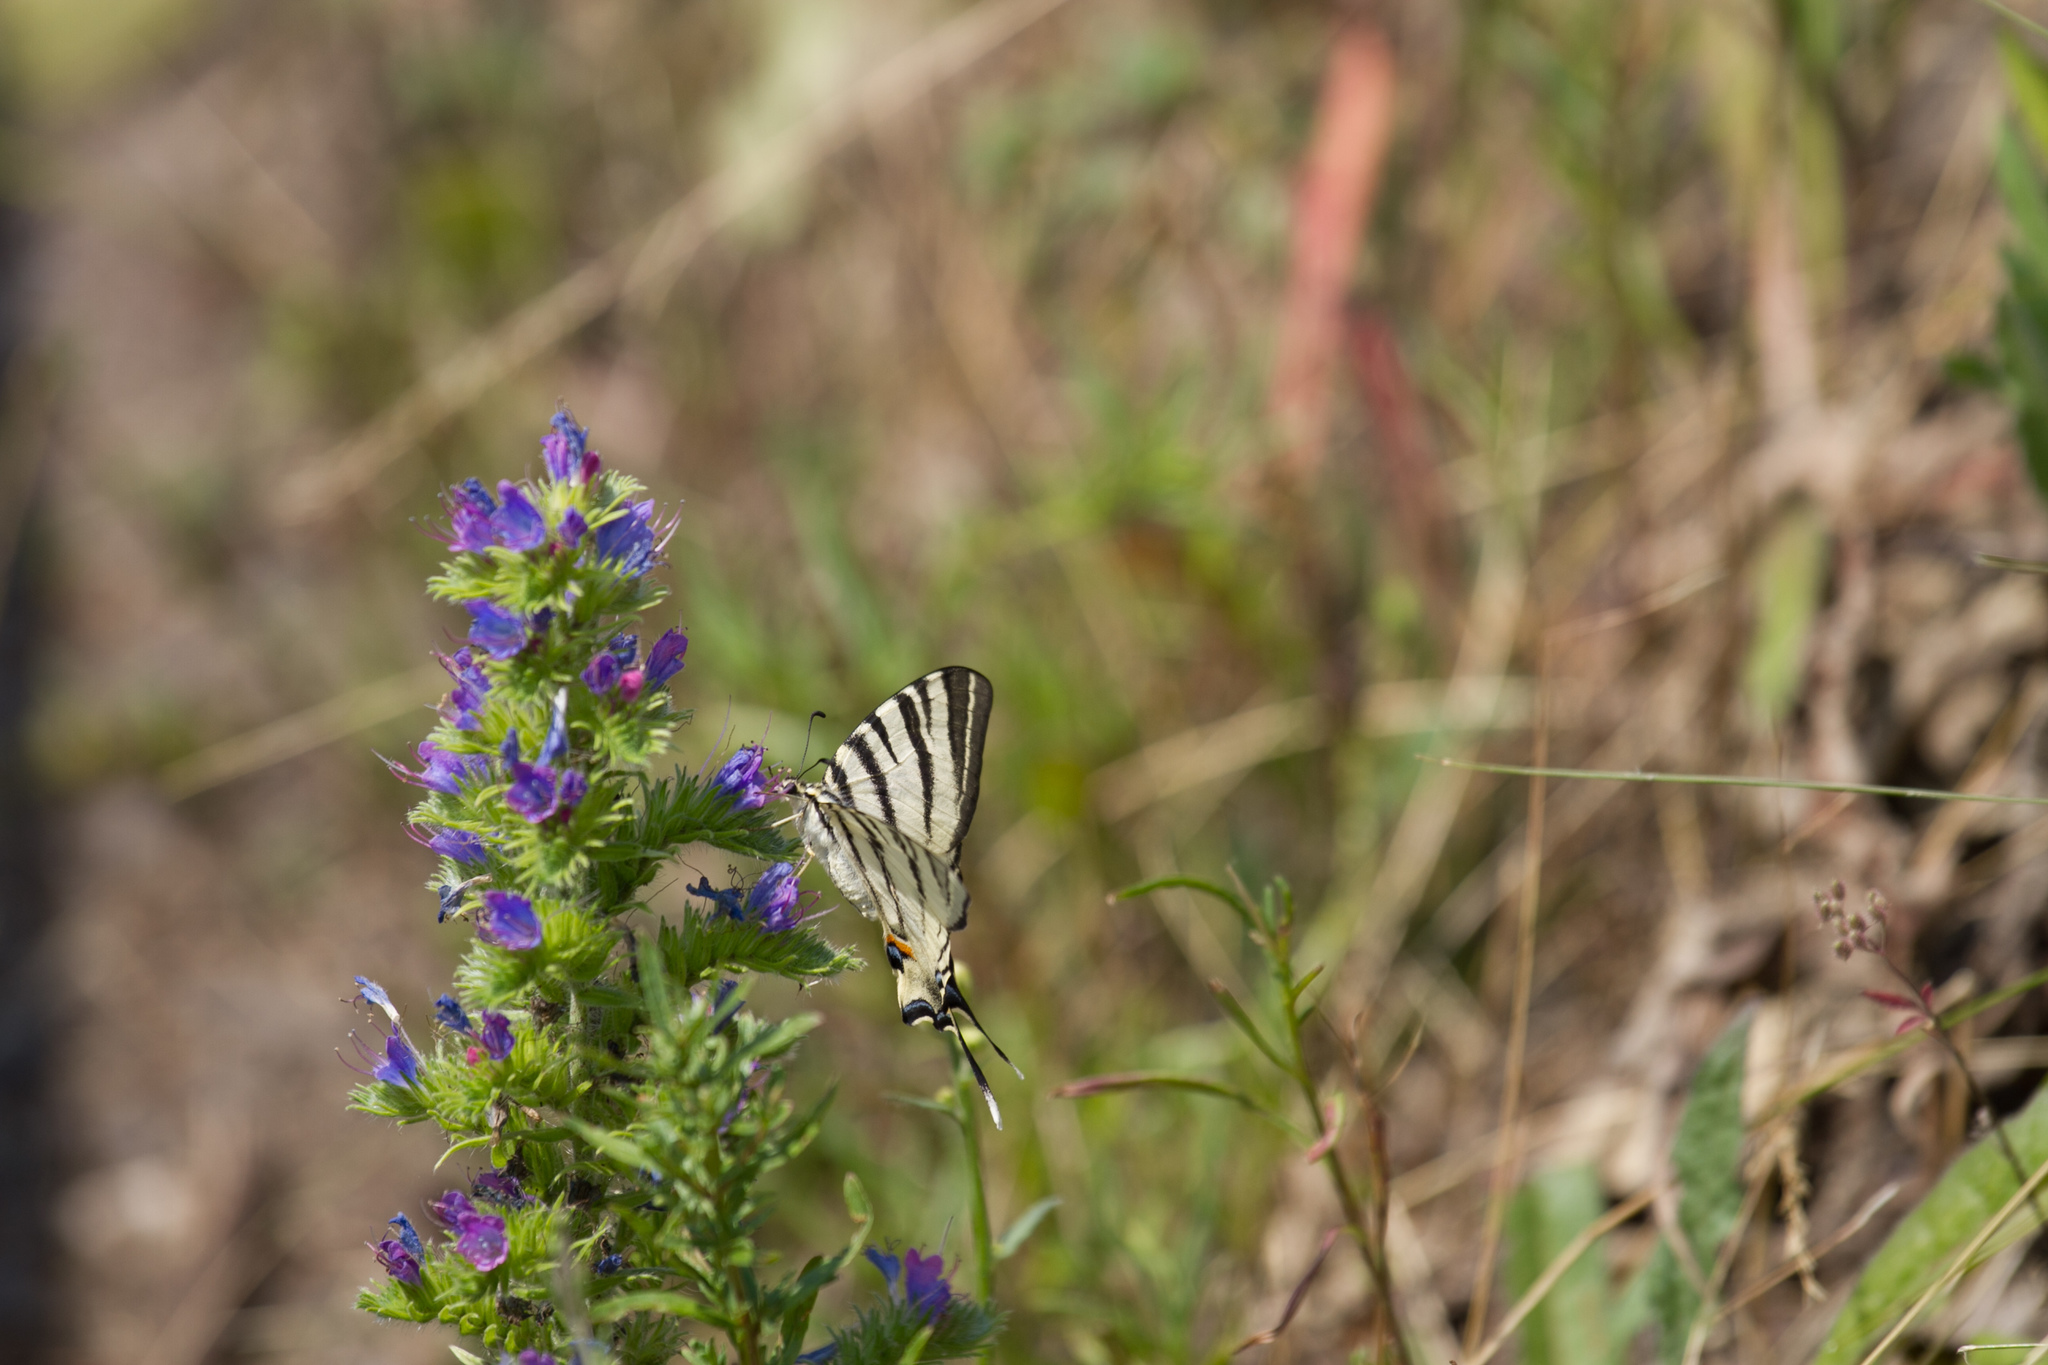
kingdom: Animalia
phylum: Arthropoda
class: Insecta
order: Lepidoptera
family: Papilionidae
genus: Iphiclides
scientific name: Iphiclides podalirius
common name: Scarce swallowtail
